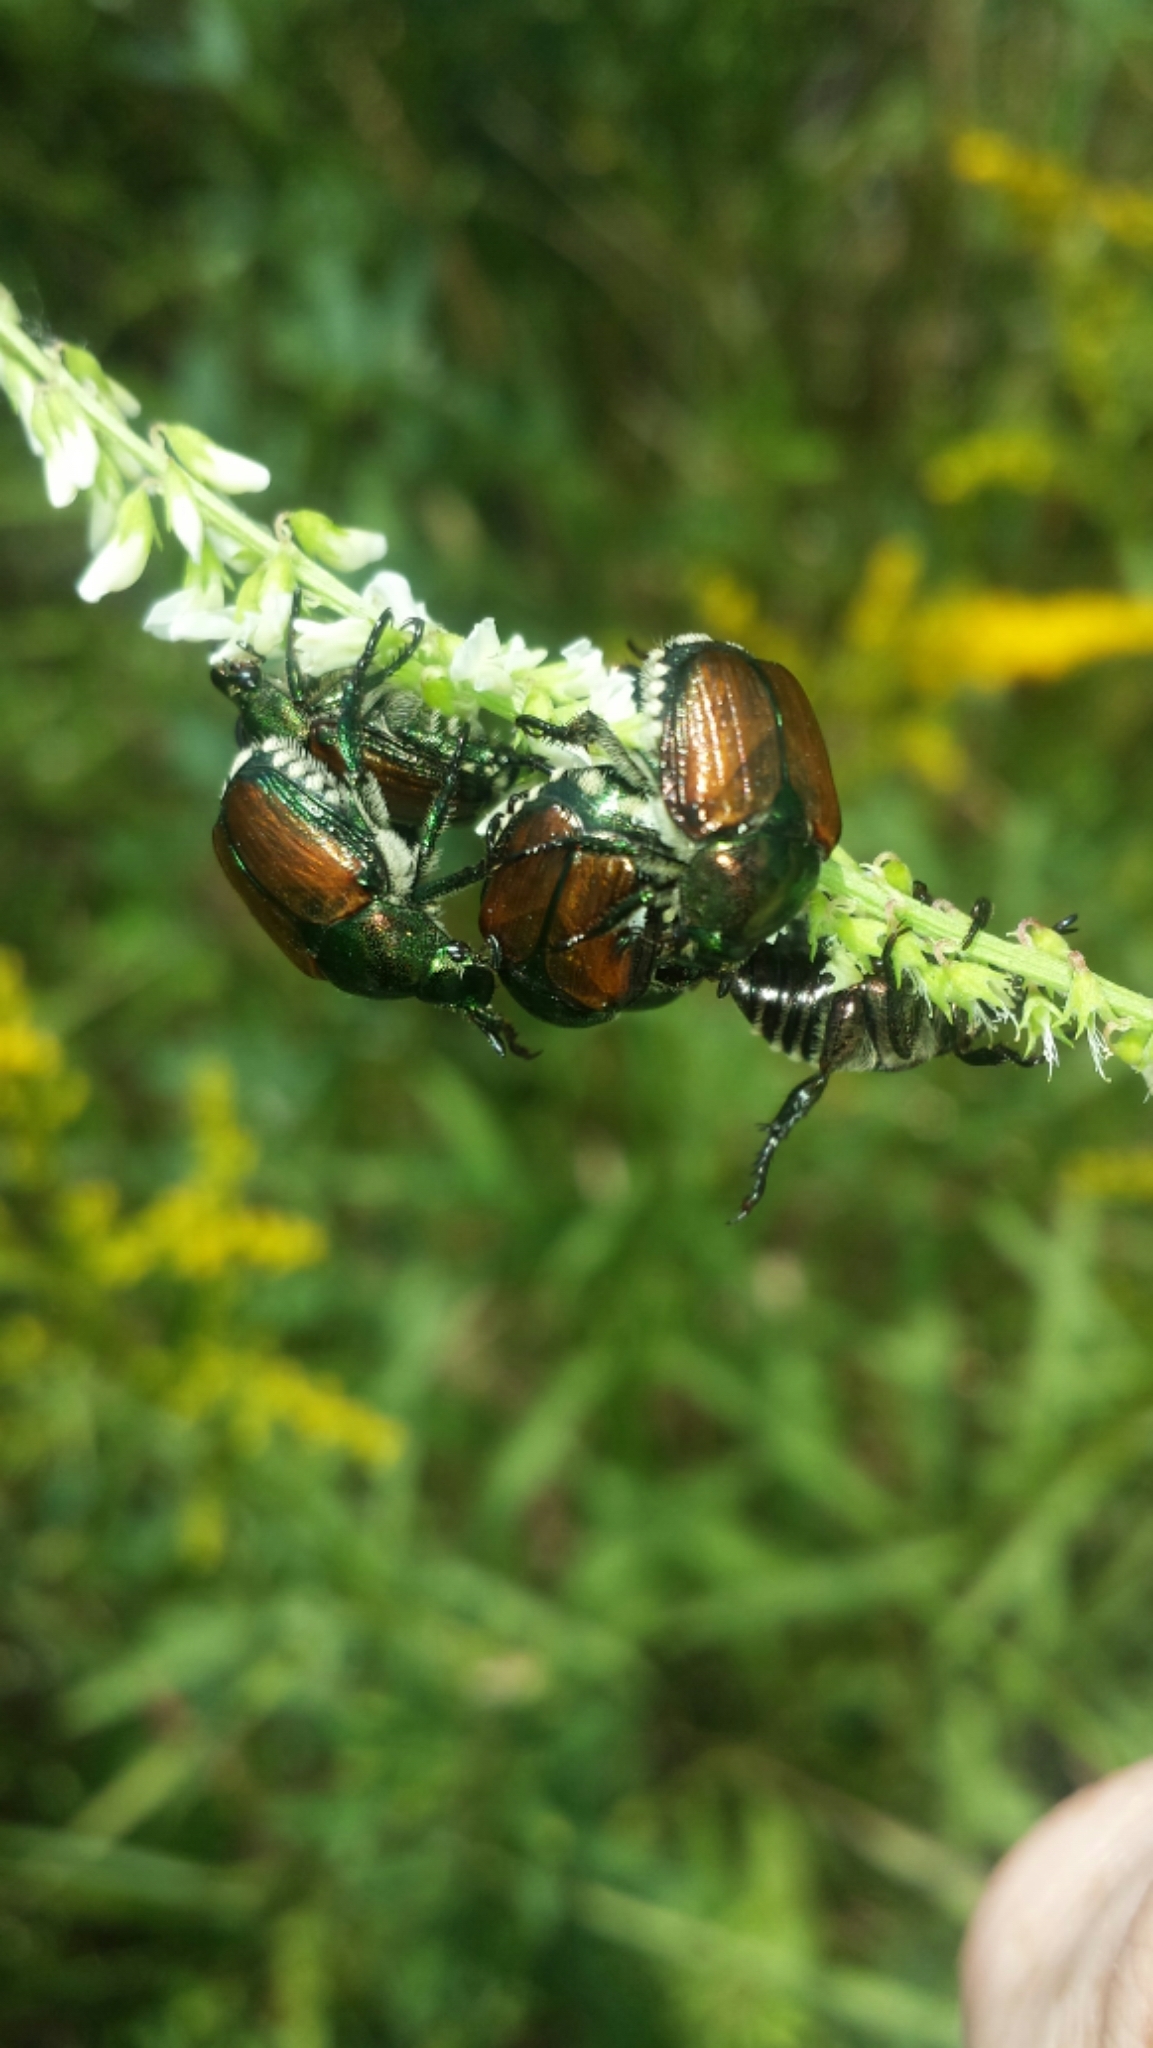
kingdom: Animalia
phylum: Arthropoda
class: Insecta
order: Coleoptera
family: Scarabaeidae
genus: Popillia
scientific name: Popillia japonica
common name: Japanese beetle
